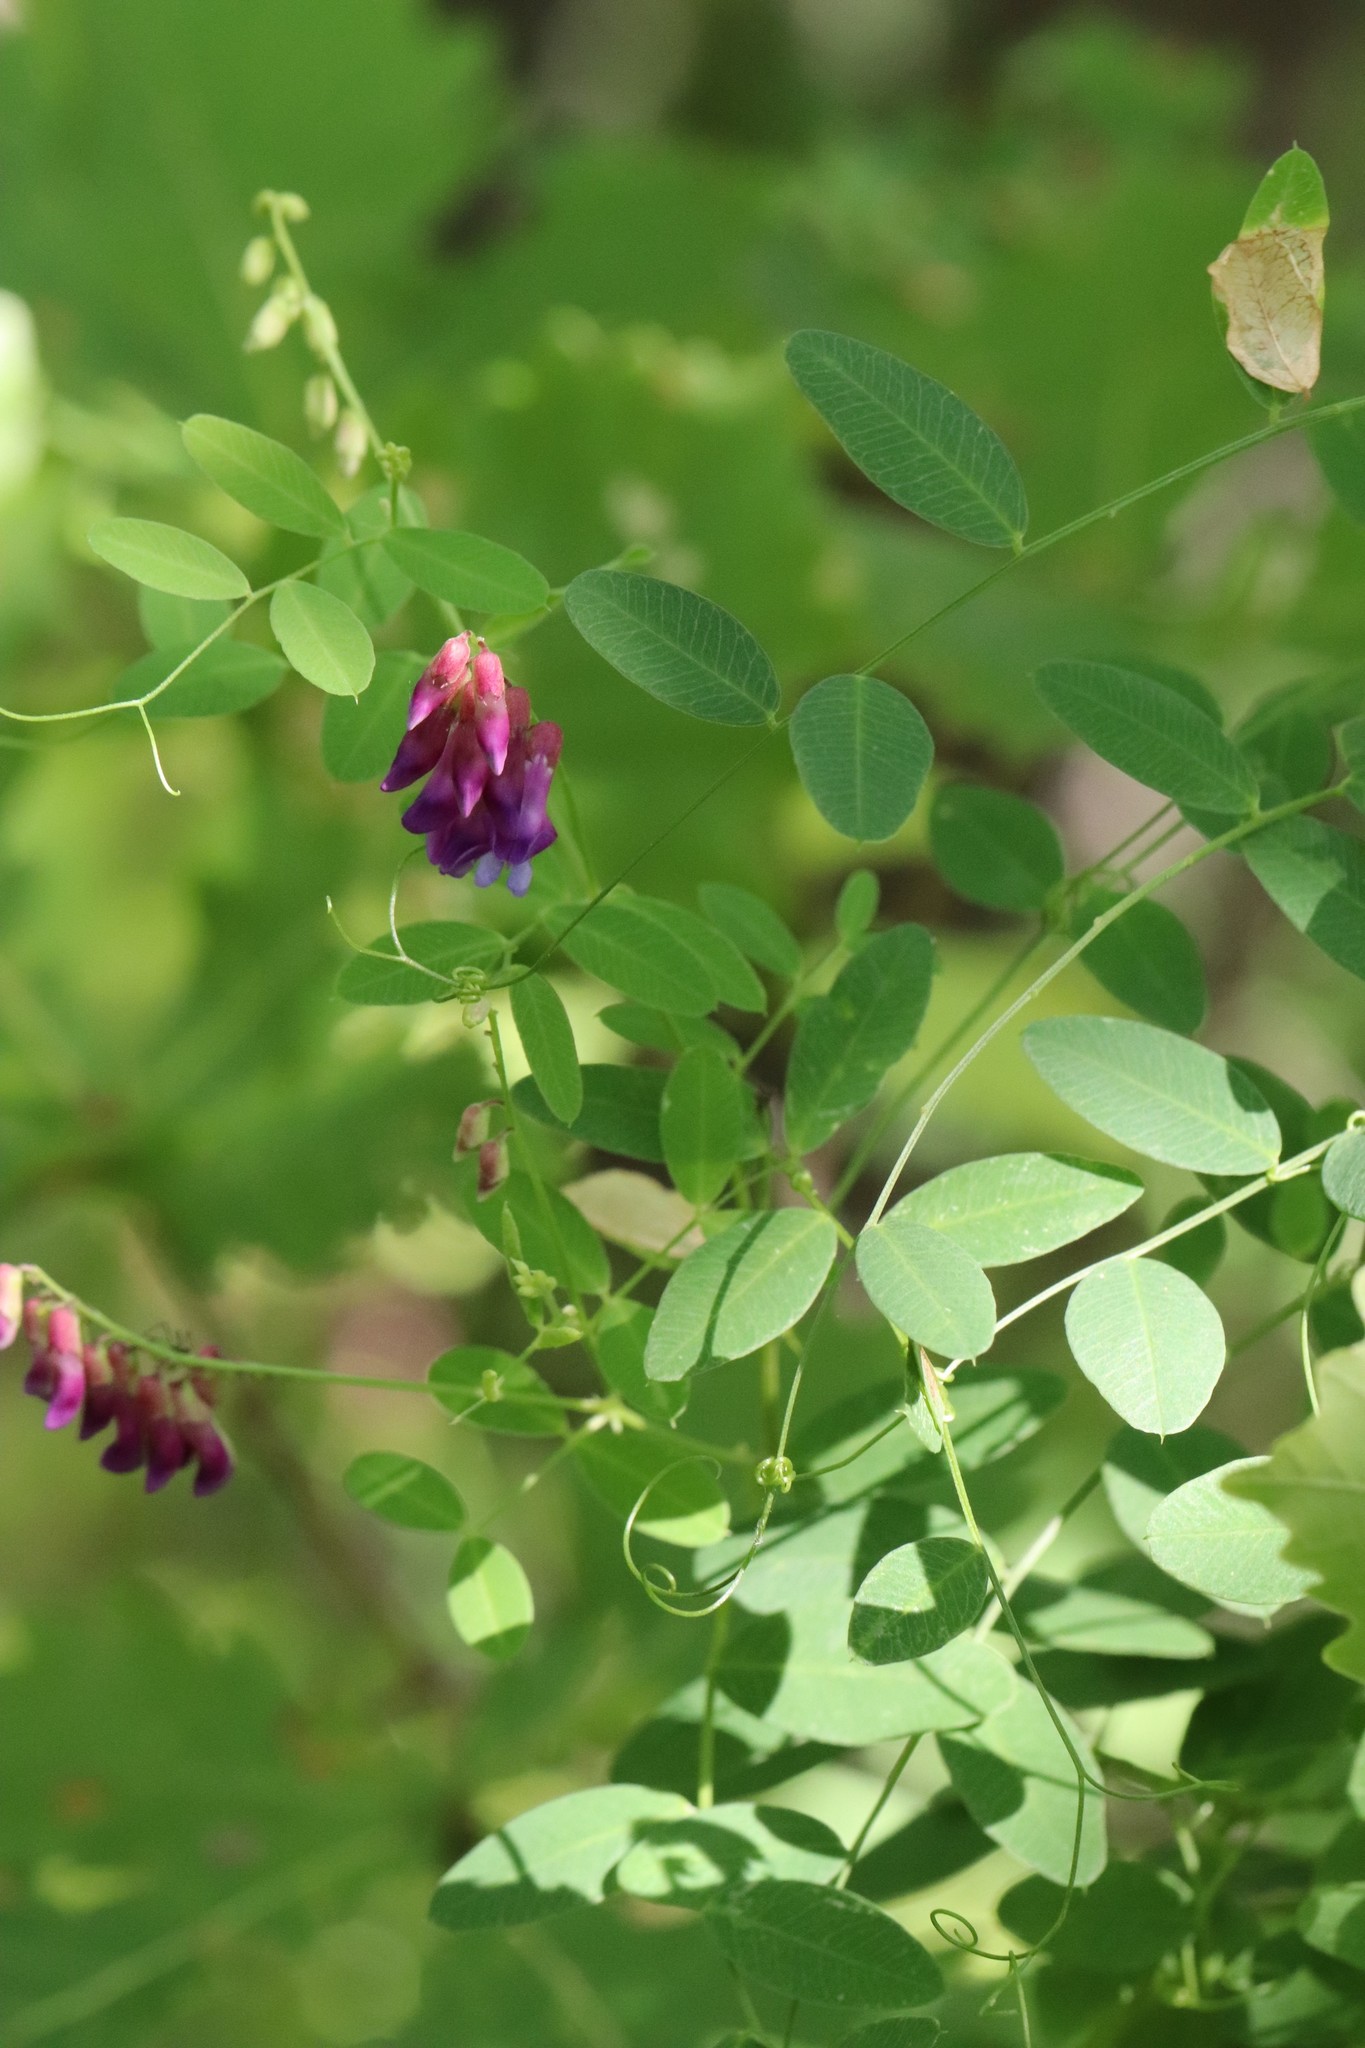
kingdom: Plantae
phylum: Tracheophyta
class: Magnoliopsida
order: Fabales
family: Fabaceae
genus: Vicia
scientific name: Vicia amurensis
